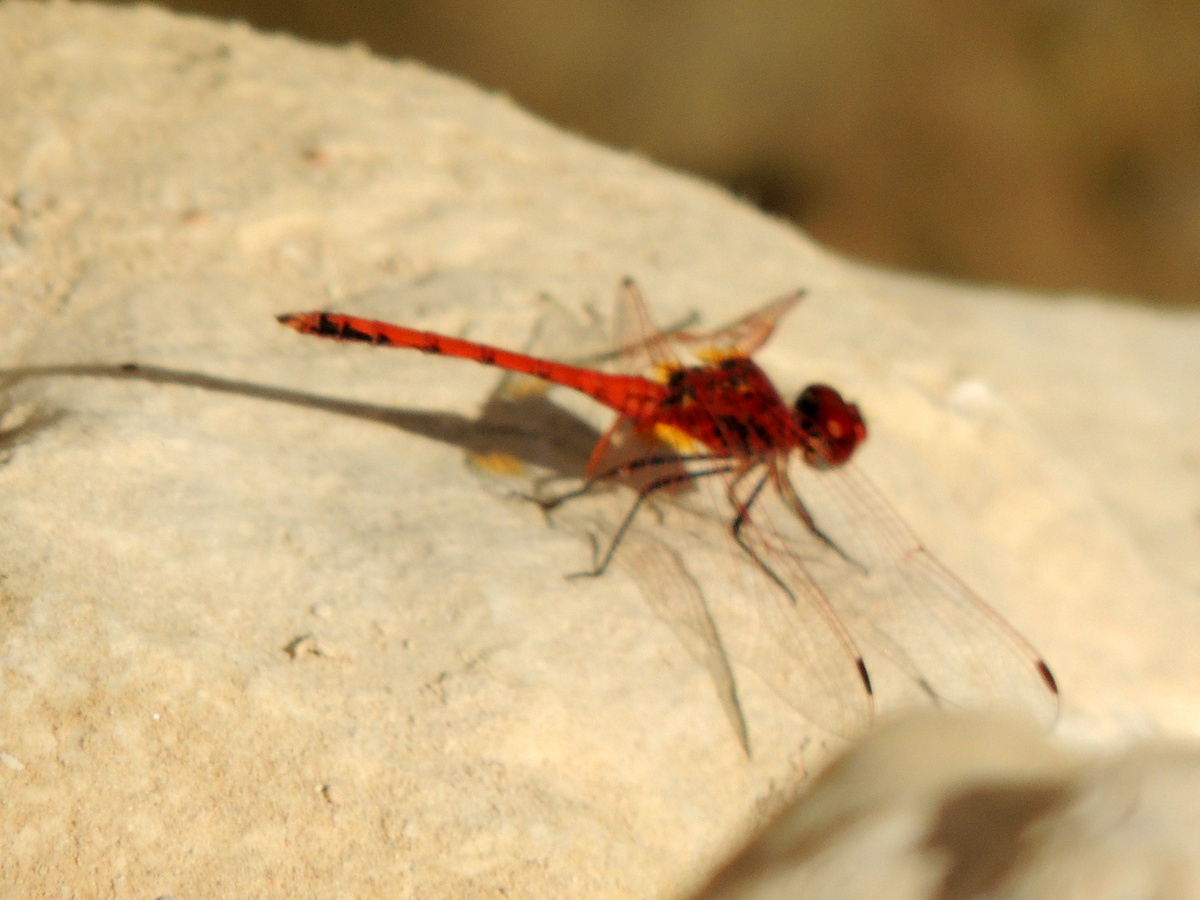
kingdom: Animalia
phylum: Arthropoda
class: Insecta
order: Odonata
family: Libellulidae
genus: Trithemis
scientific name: Trithemis arteriosa
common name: Red-veined dropwing
